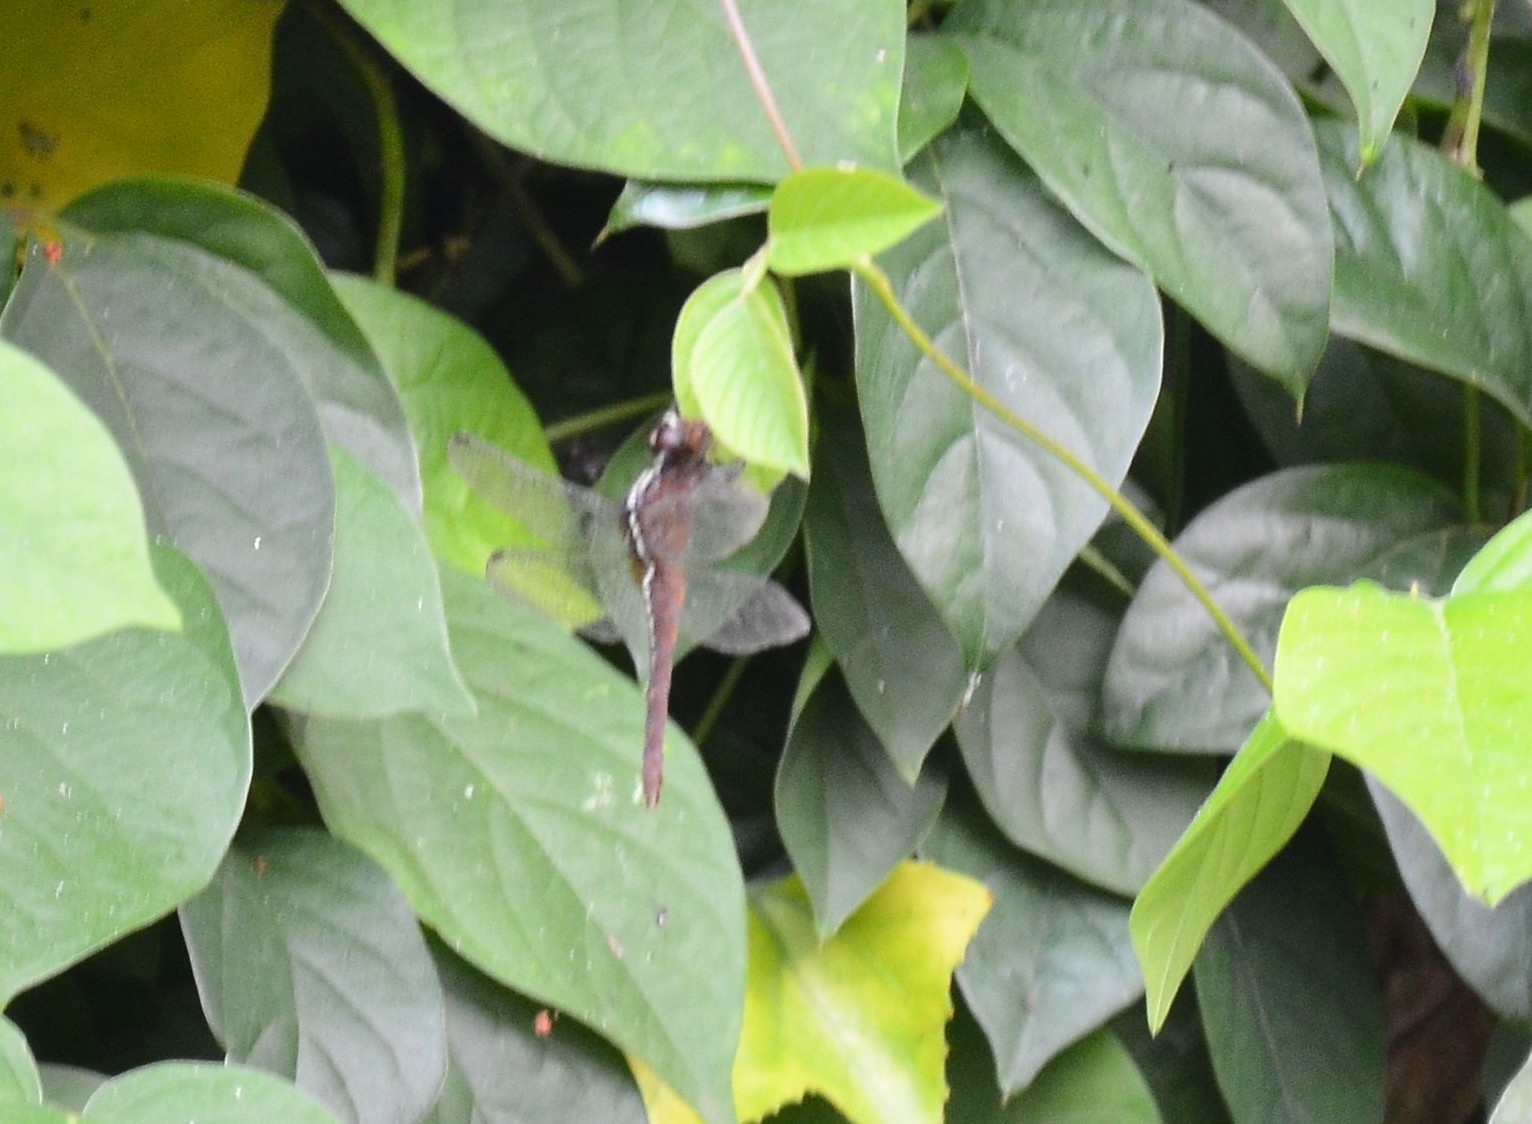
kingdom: Animalia
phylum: Arthropoda
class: Insecta
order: Odonata
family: Libellulidae
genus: Rhodothemis
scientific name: Rhodothemis rufa
